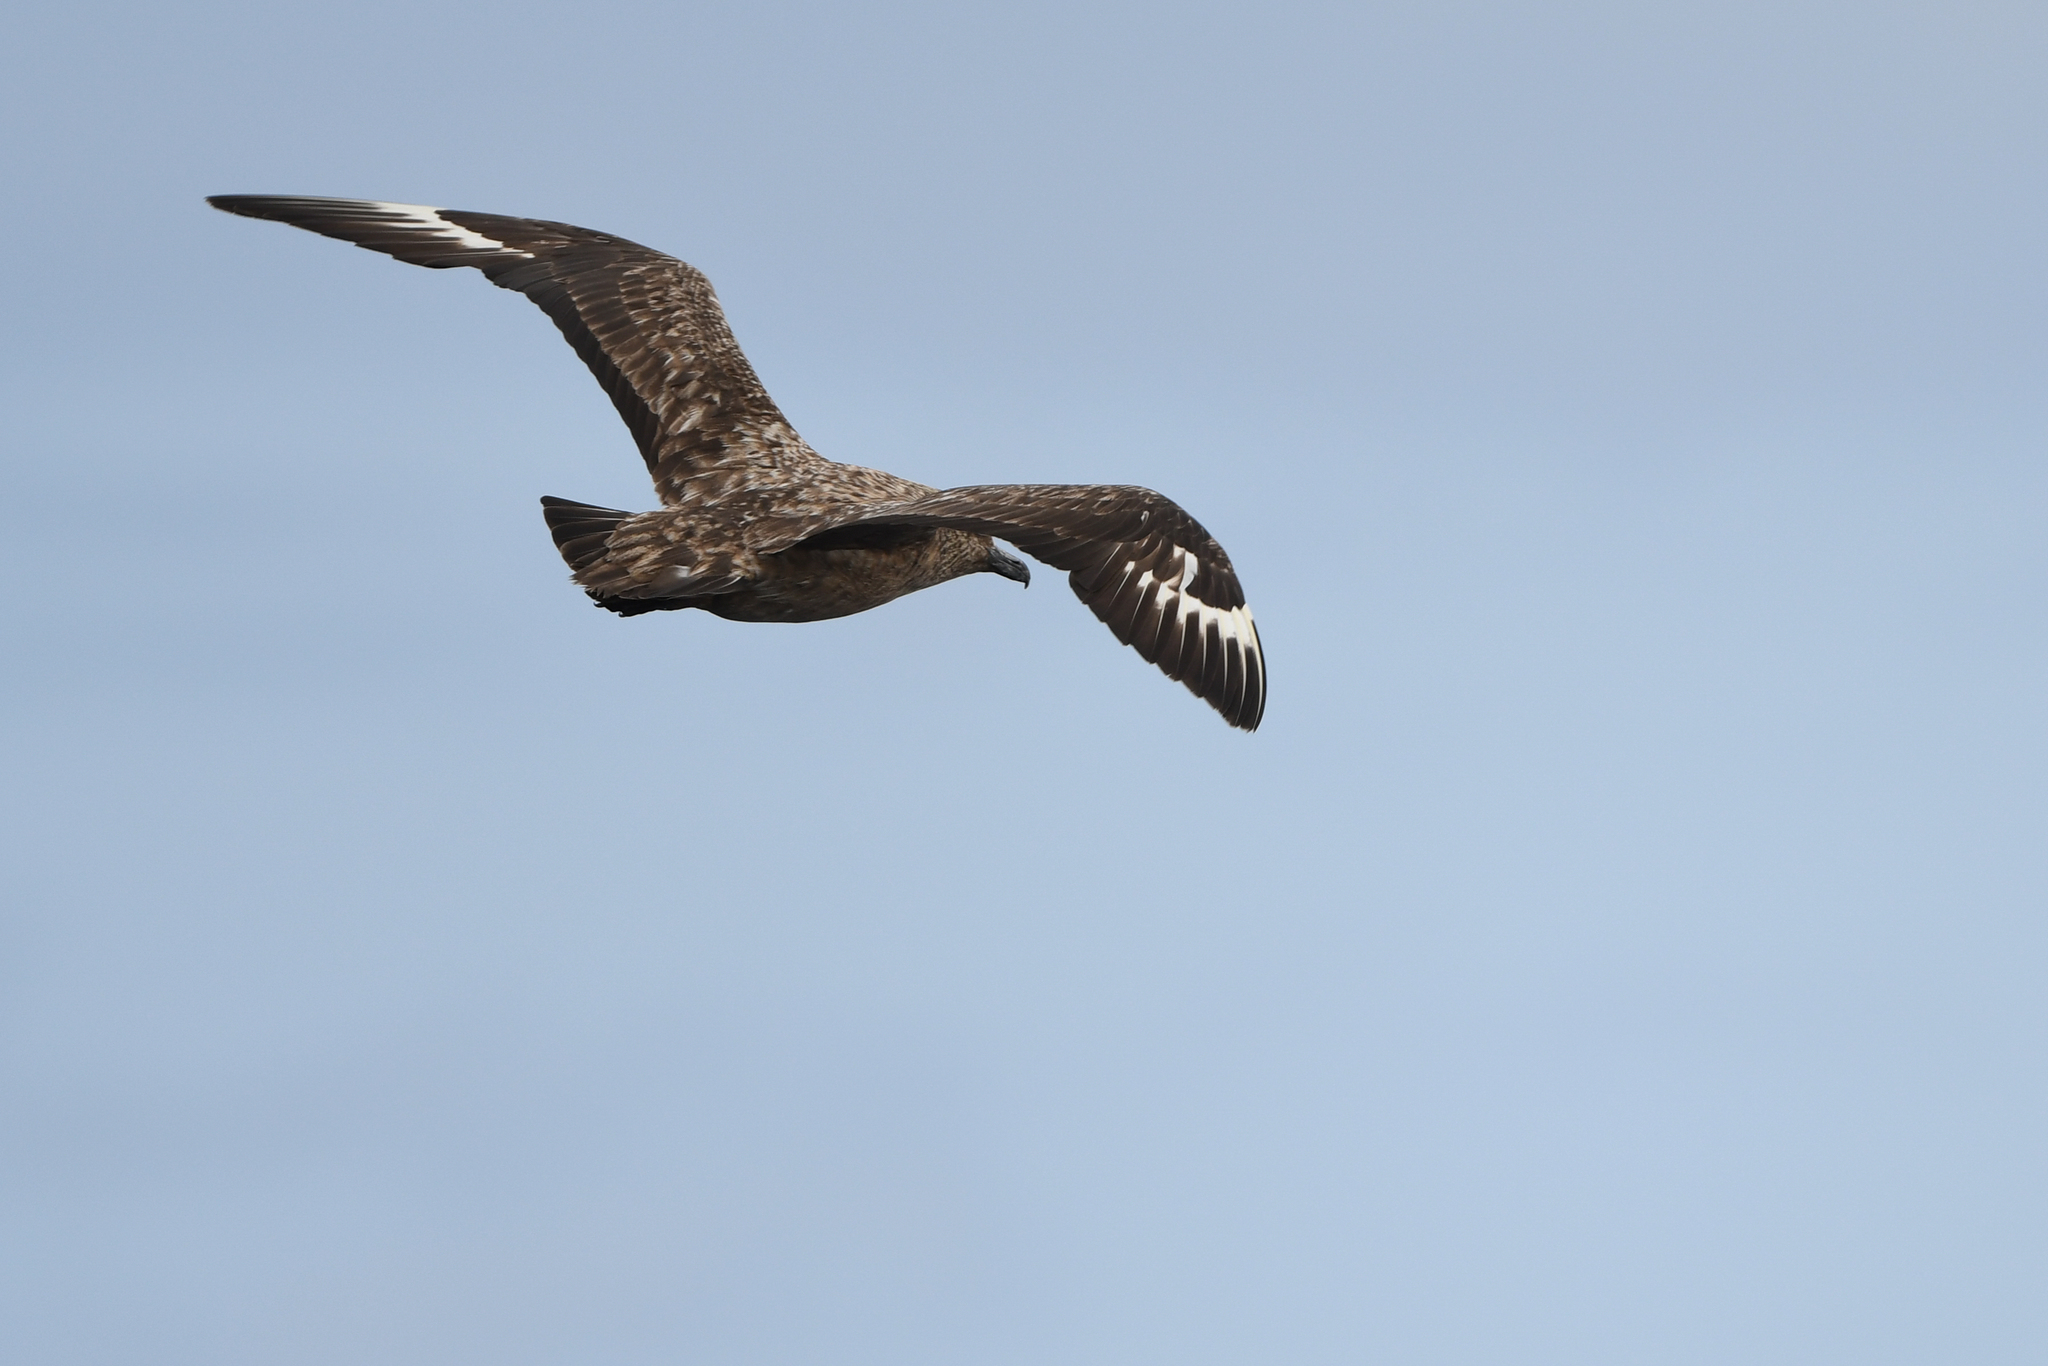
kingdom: Animalia
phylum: Chordata
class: Aves
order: Charadriiformes
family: Stercorariidae
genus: Stercorarius
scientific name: Stercorarius skua
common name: Great skua
